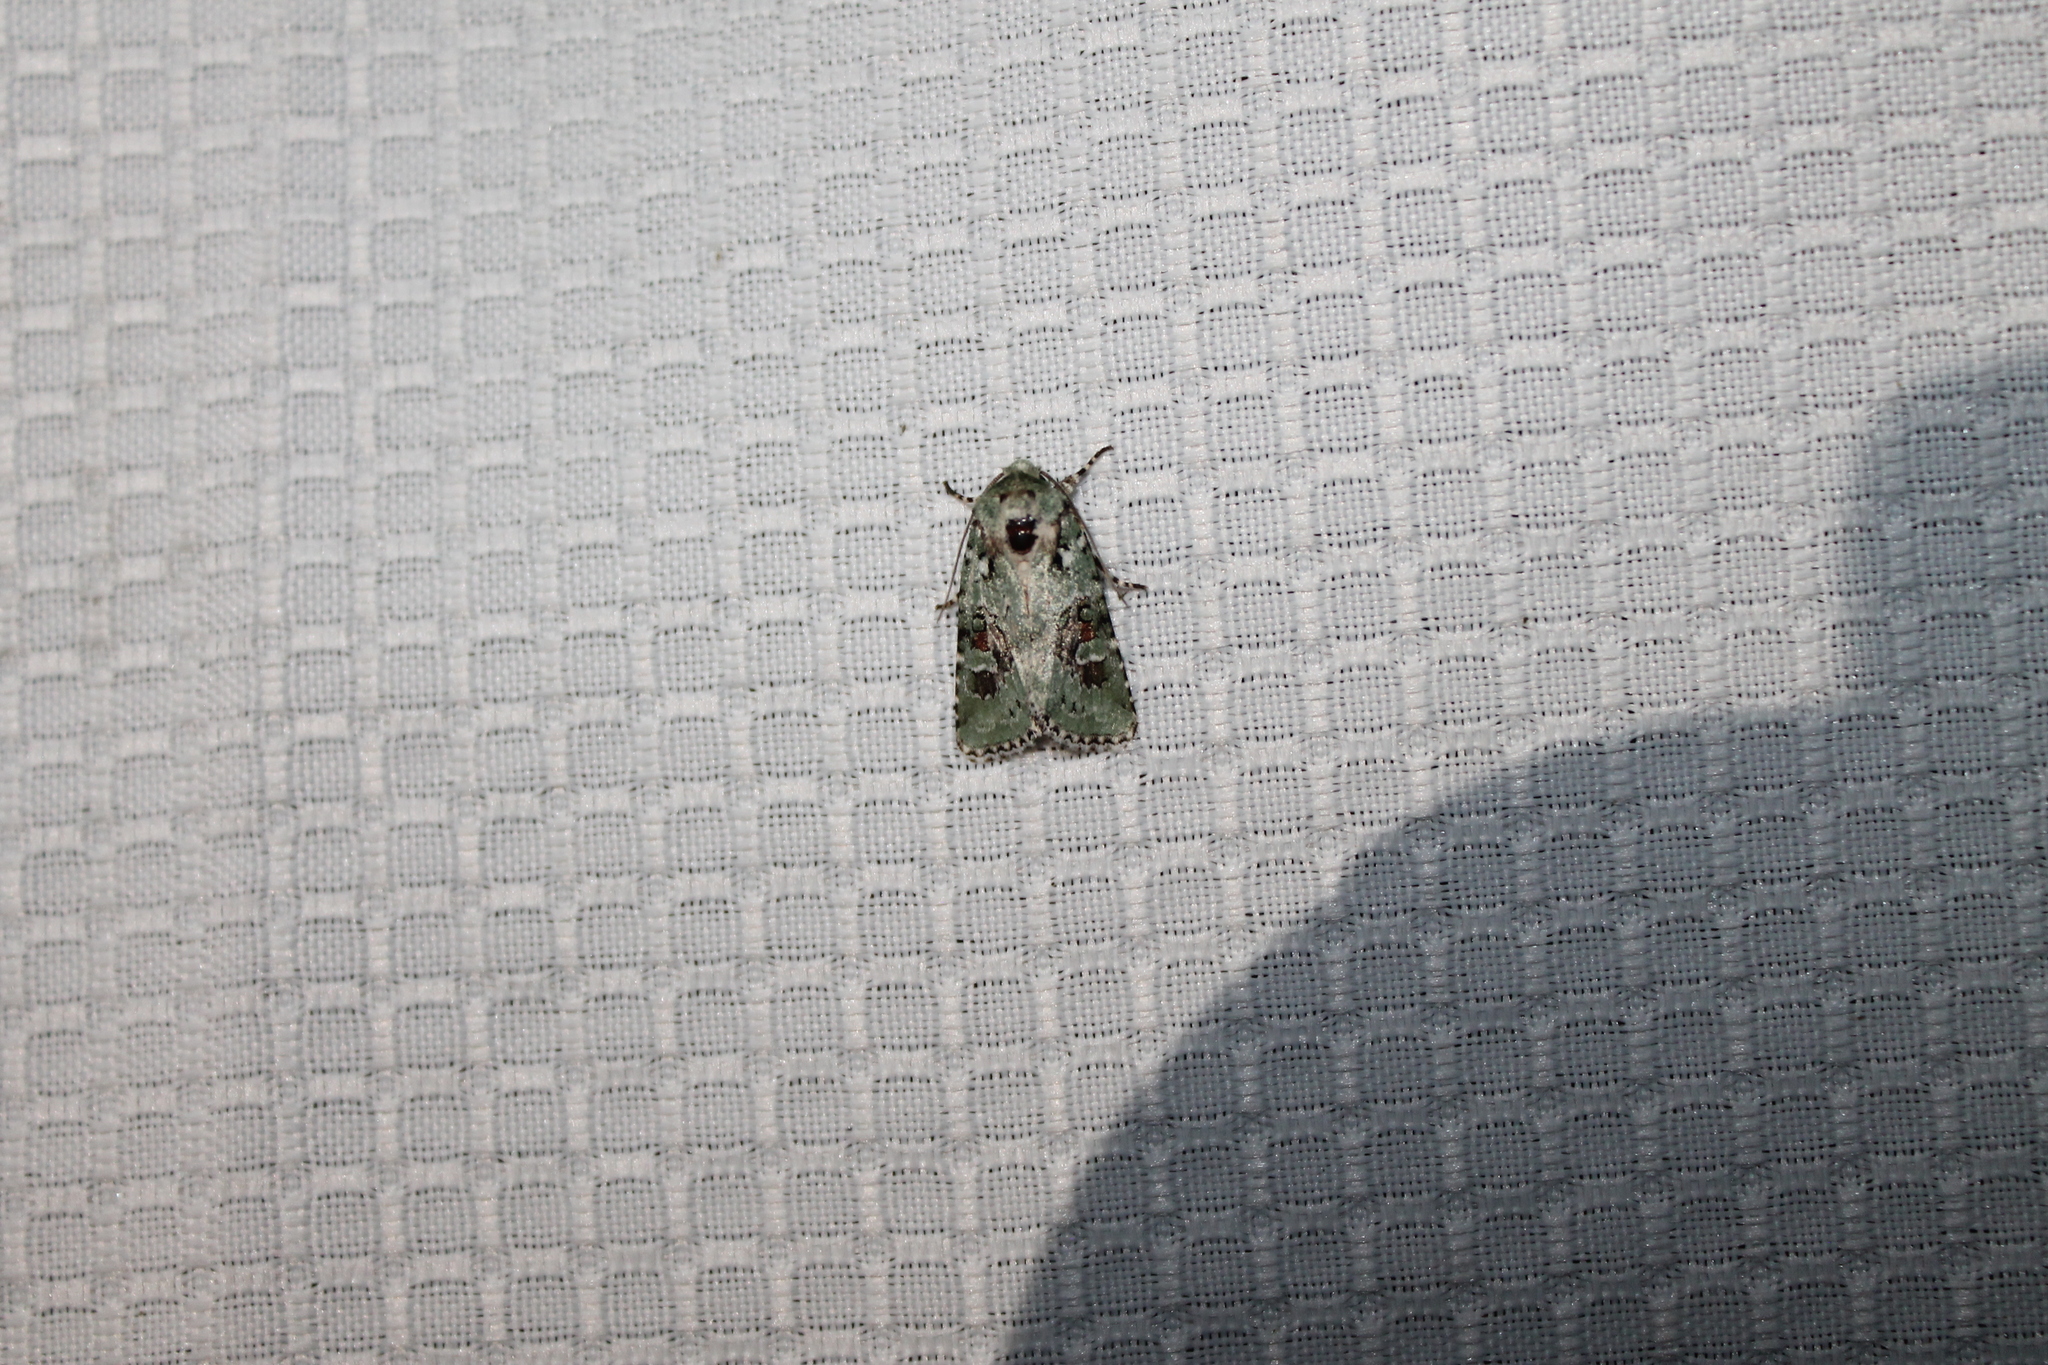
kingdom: Animalia
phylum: Arthropoda
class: Insecta
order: Lepidoptera
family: Noctuidae
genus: Lacinipolia
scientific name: Lacinipolia laudabilis
